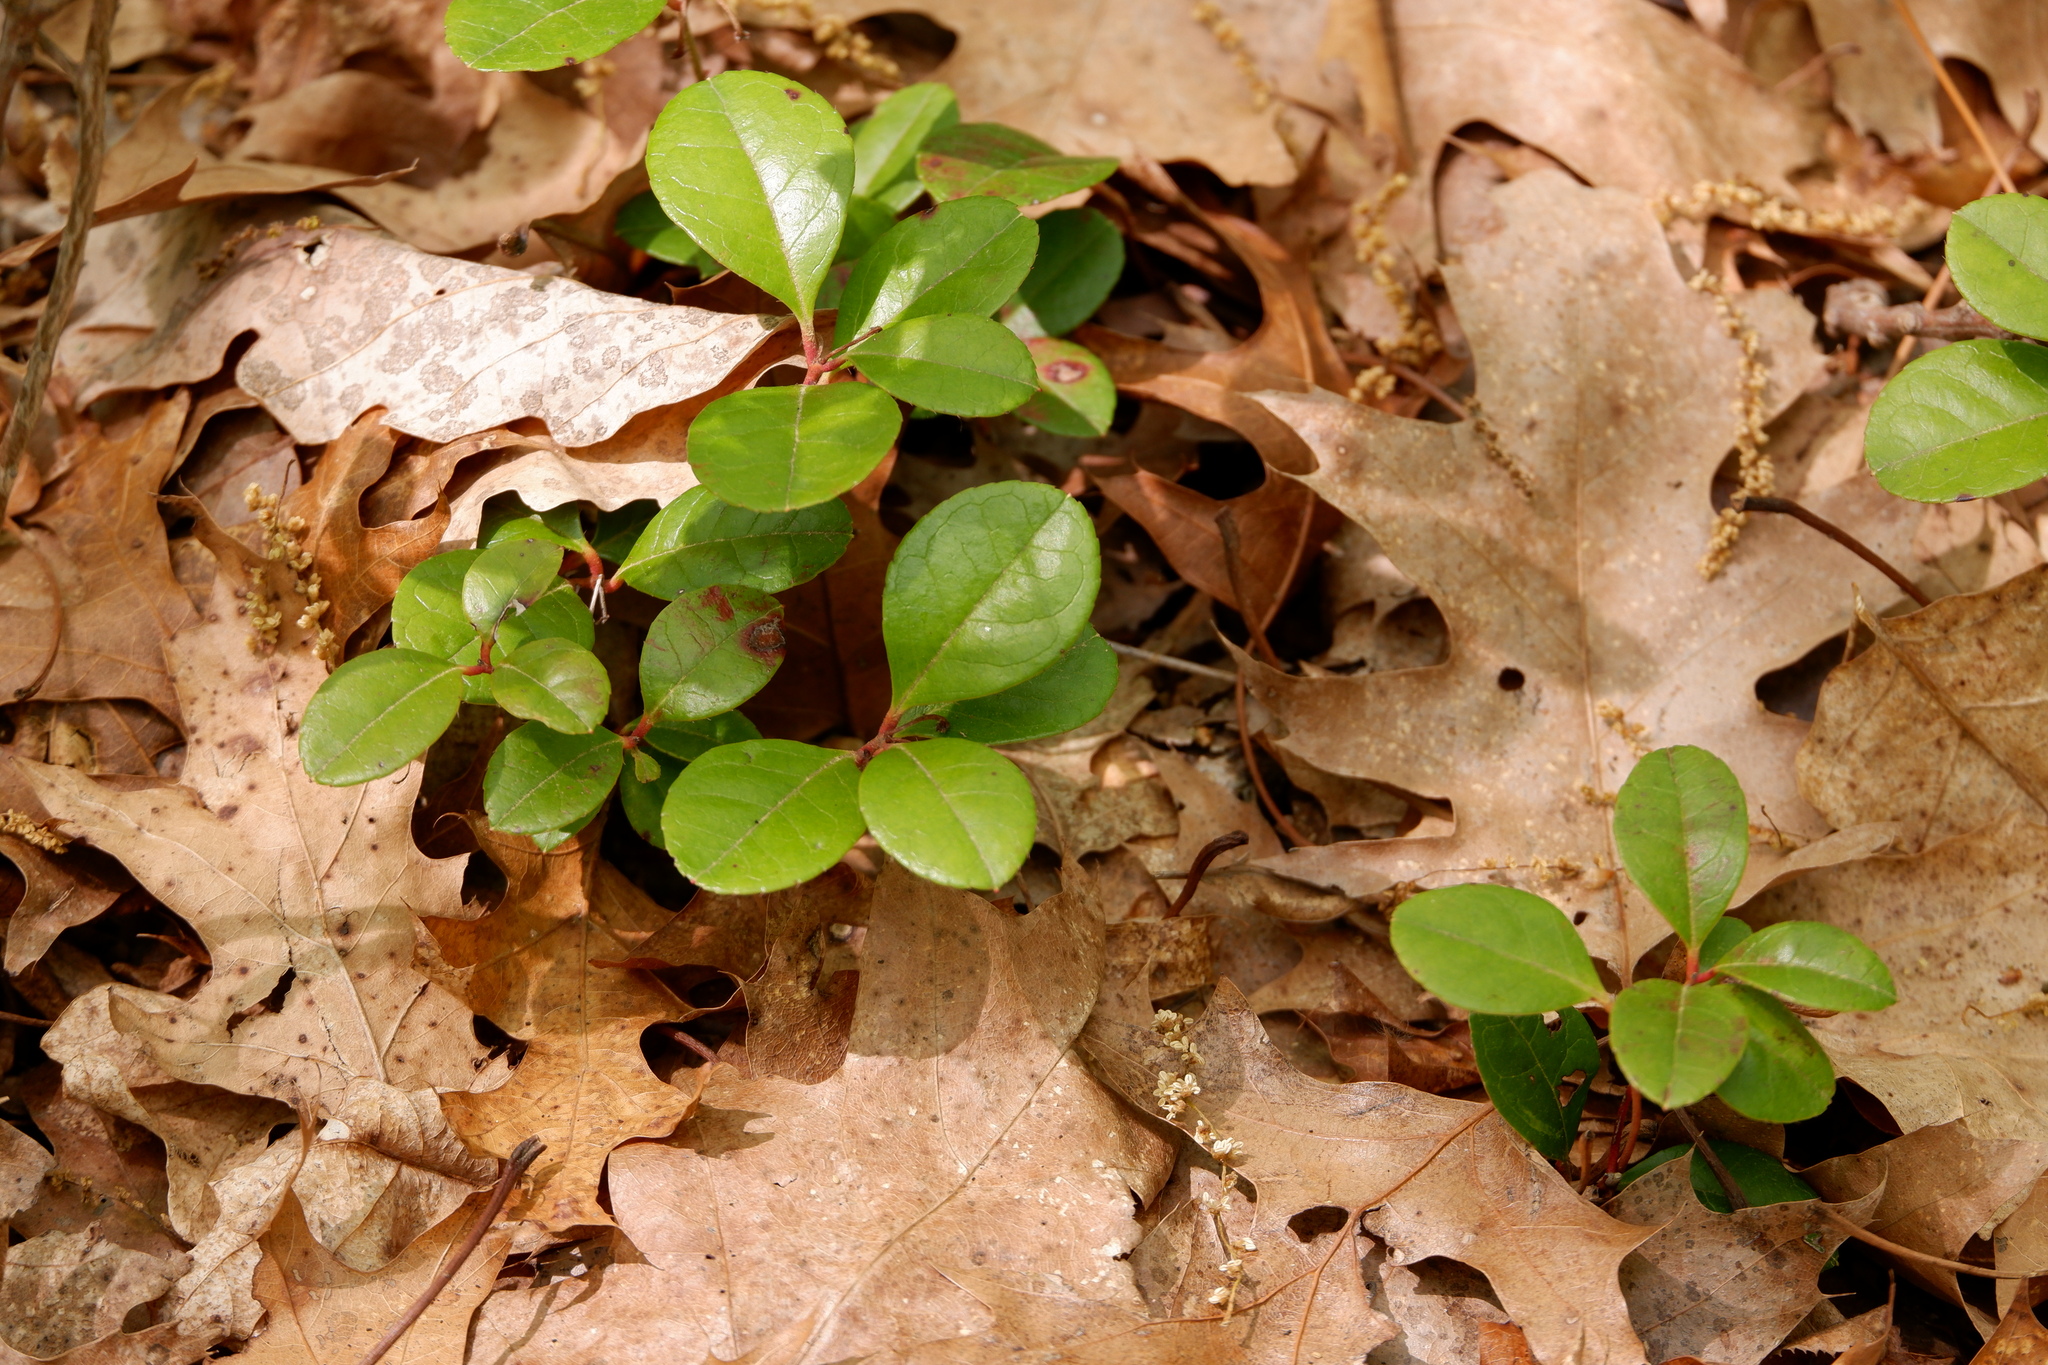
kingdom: Plantae
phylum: Tracheophyta
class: Magnoliopsida
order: Ericales
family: Ericaceae
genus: Gaultheria
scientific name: Gaultheria procumbens
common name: Checkerberry
